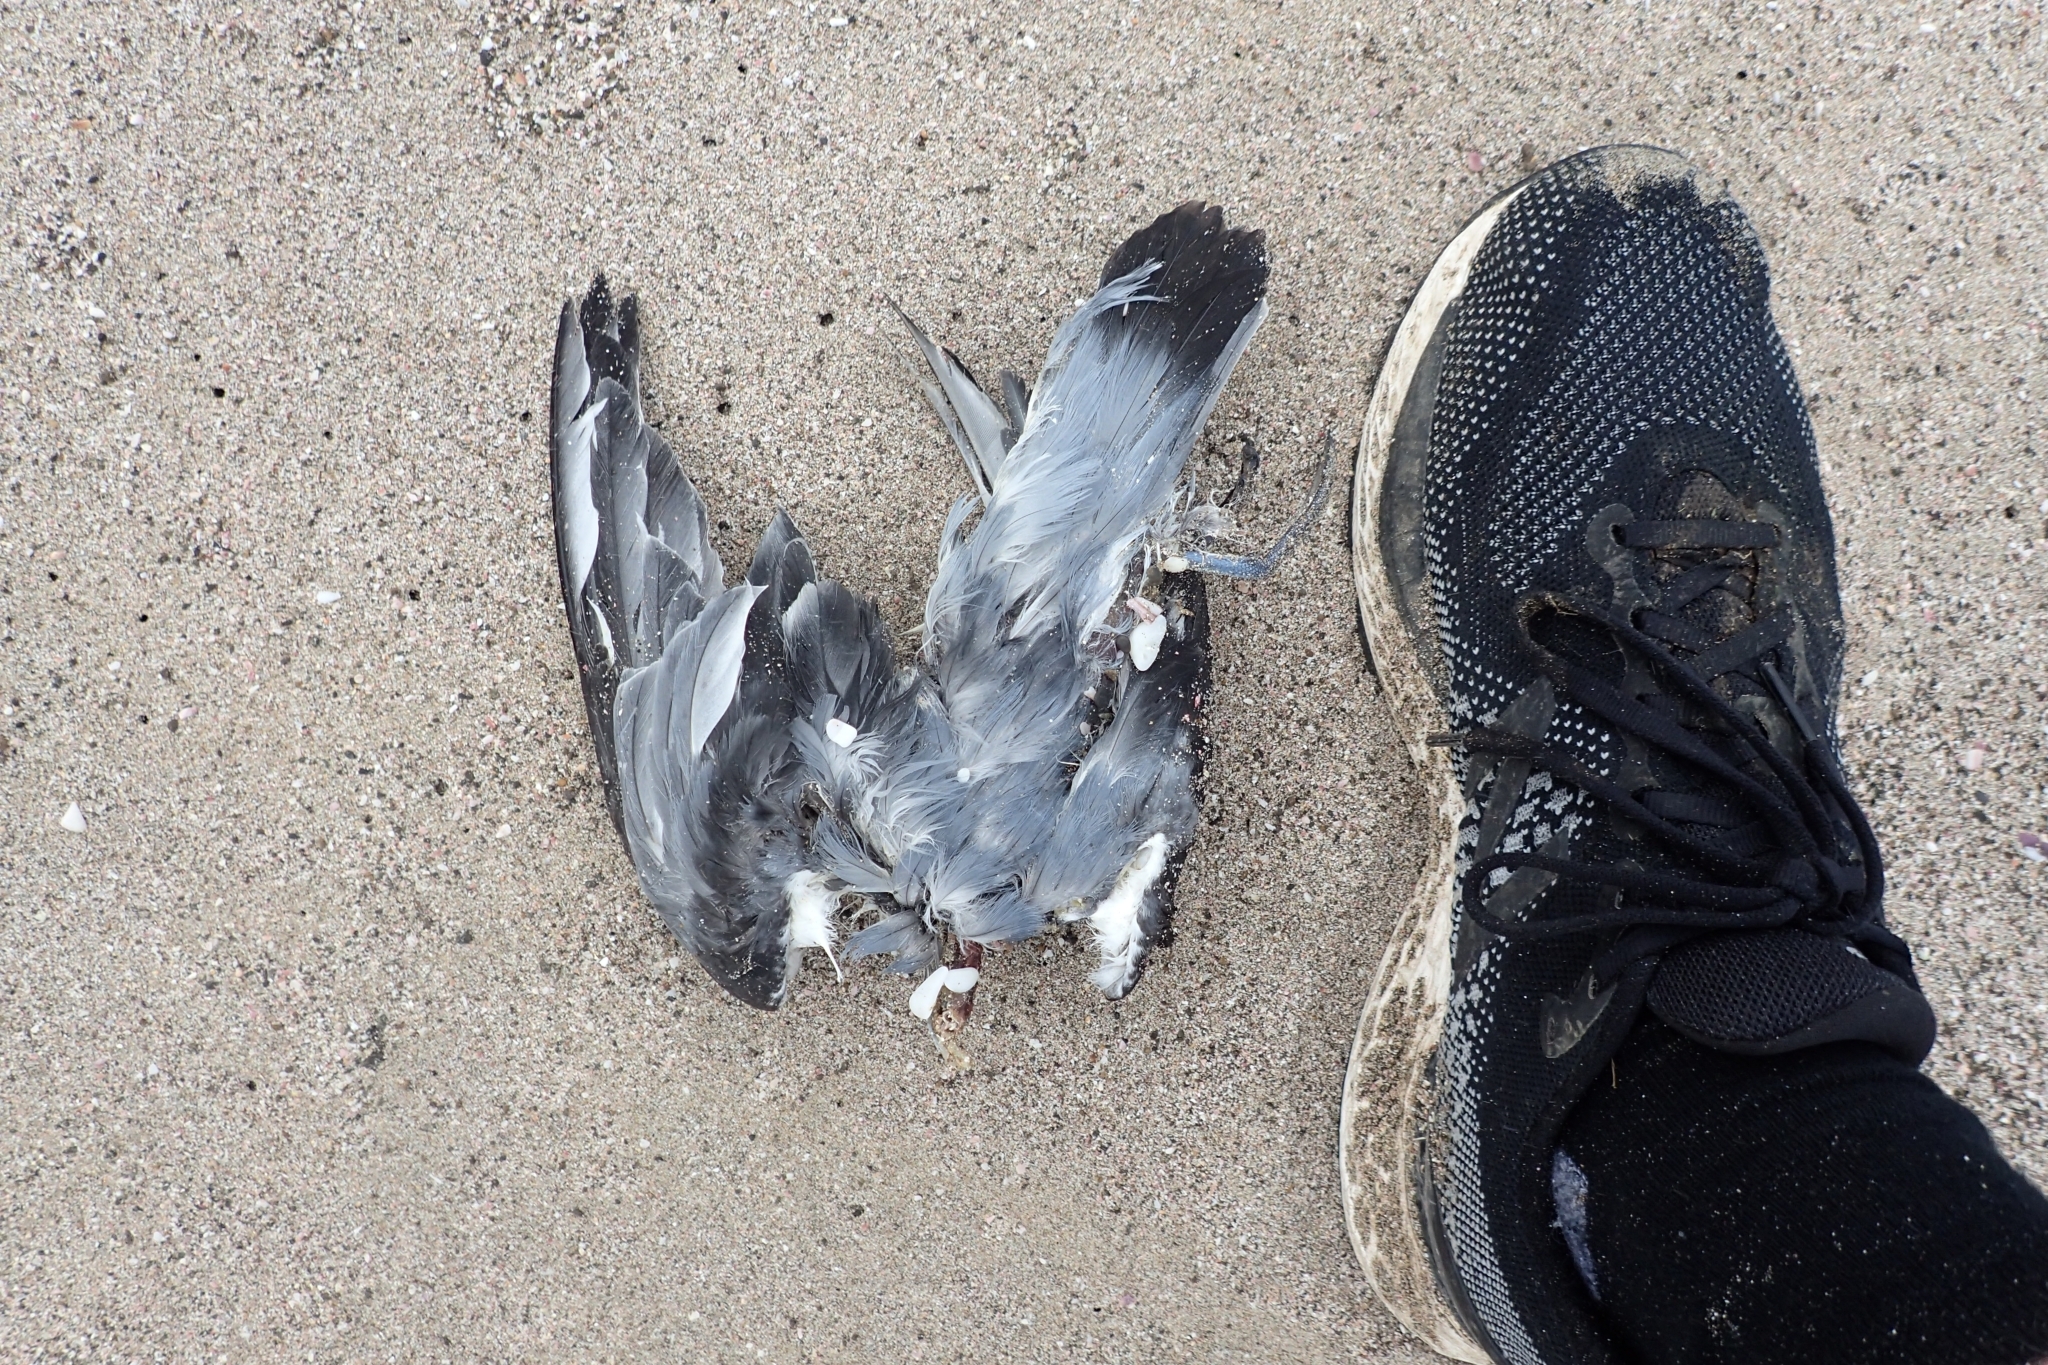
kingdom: Animalia
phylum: Chordata
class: Aves
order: Procellariiformes
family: Procellariidae
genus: Pachyptila
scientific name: Pachyptila turtur
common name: Fairy prion
